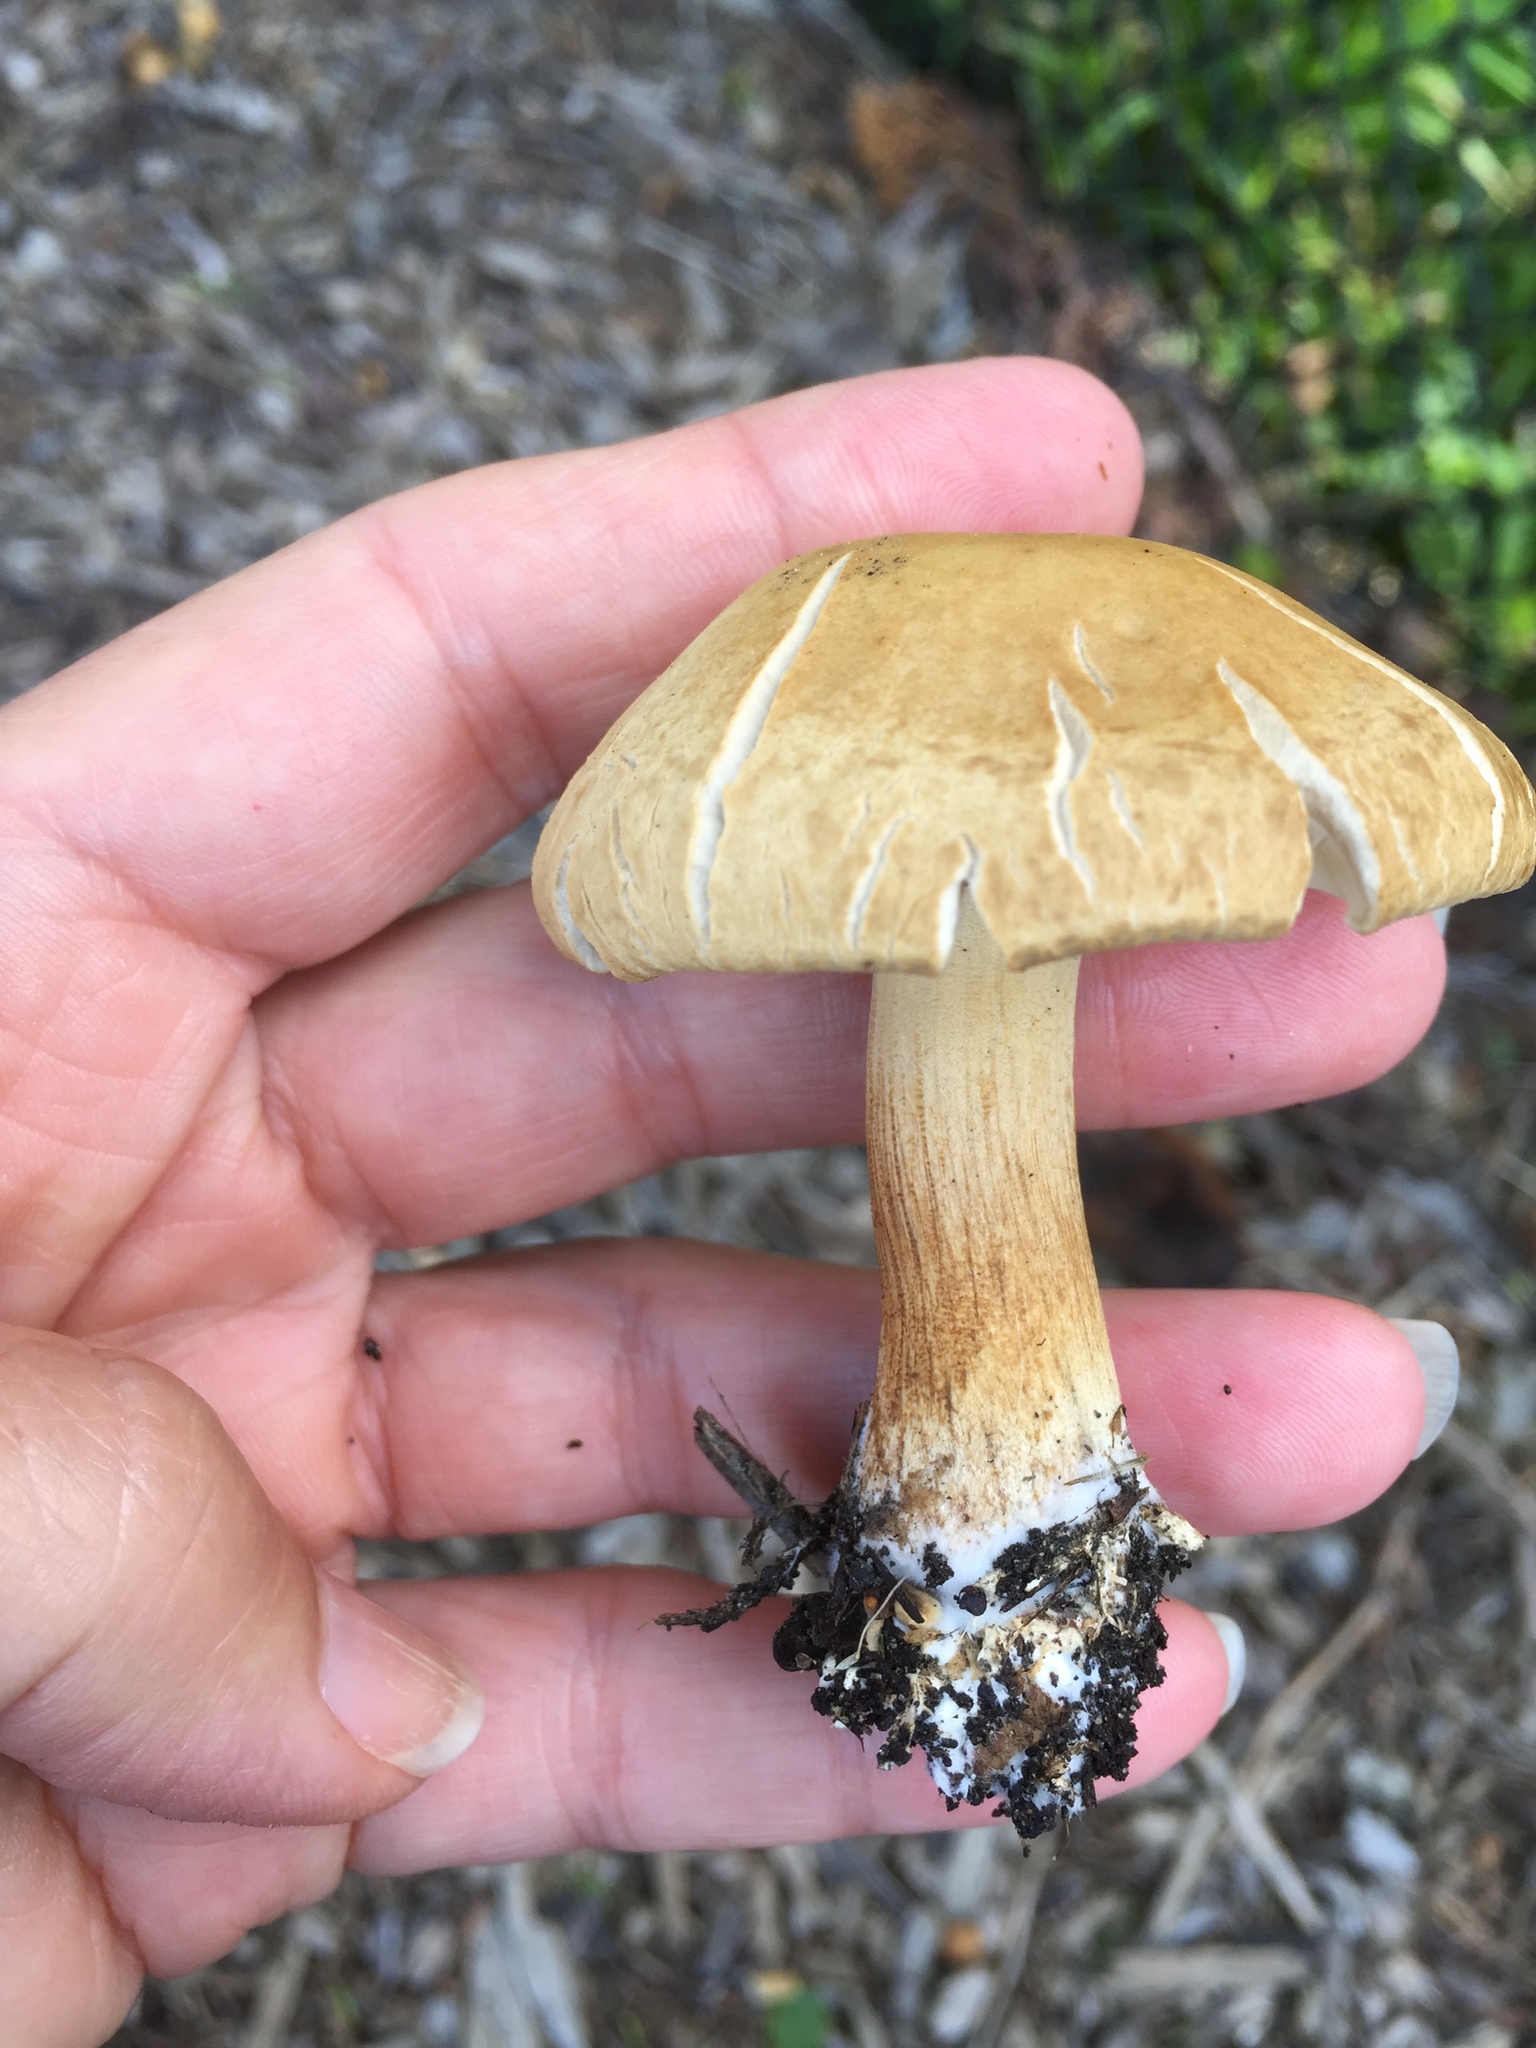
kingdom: Fungi
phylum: Basidiomycota
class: Agaricomycetes
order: Agaricales
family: Strophariaceae
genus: Agrocybe
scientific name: Agrocybe putaminum
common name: Mulch fieldcap
